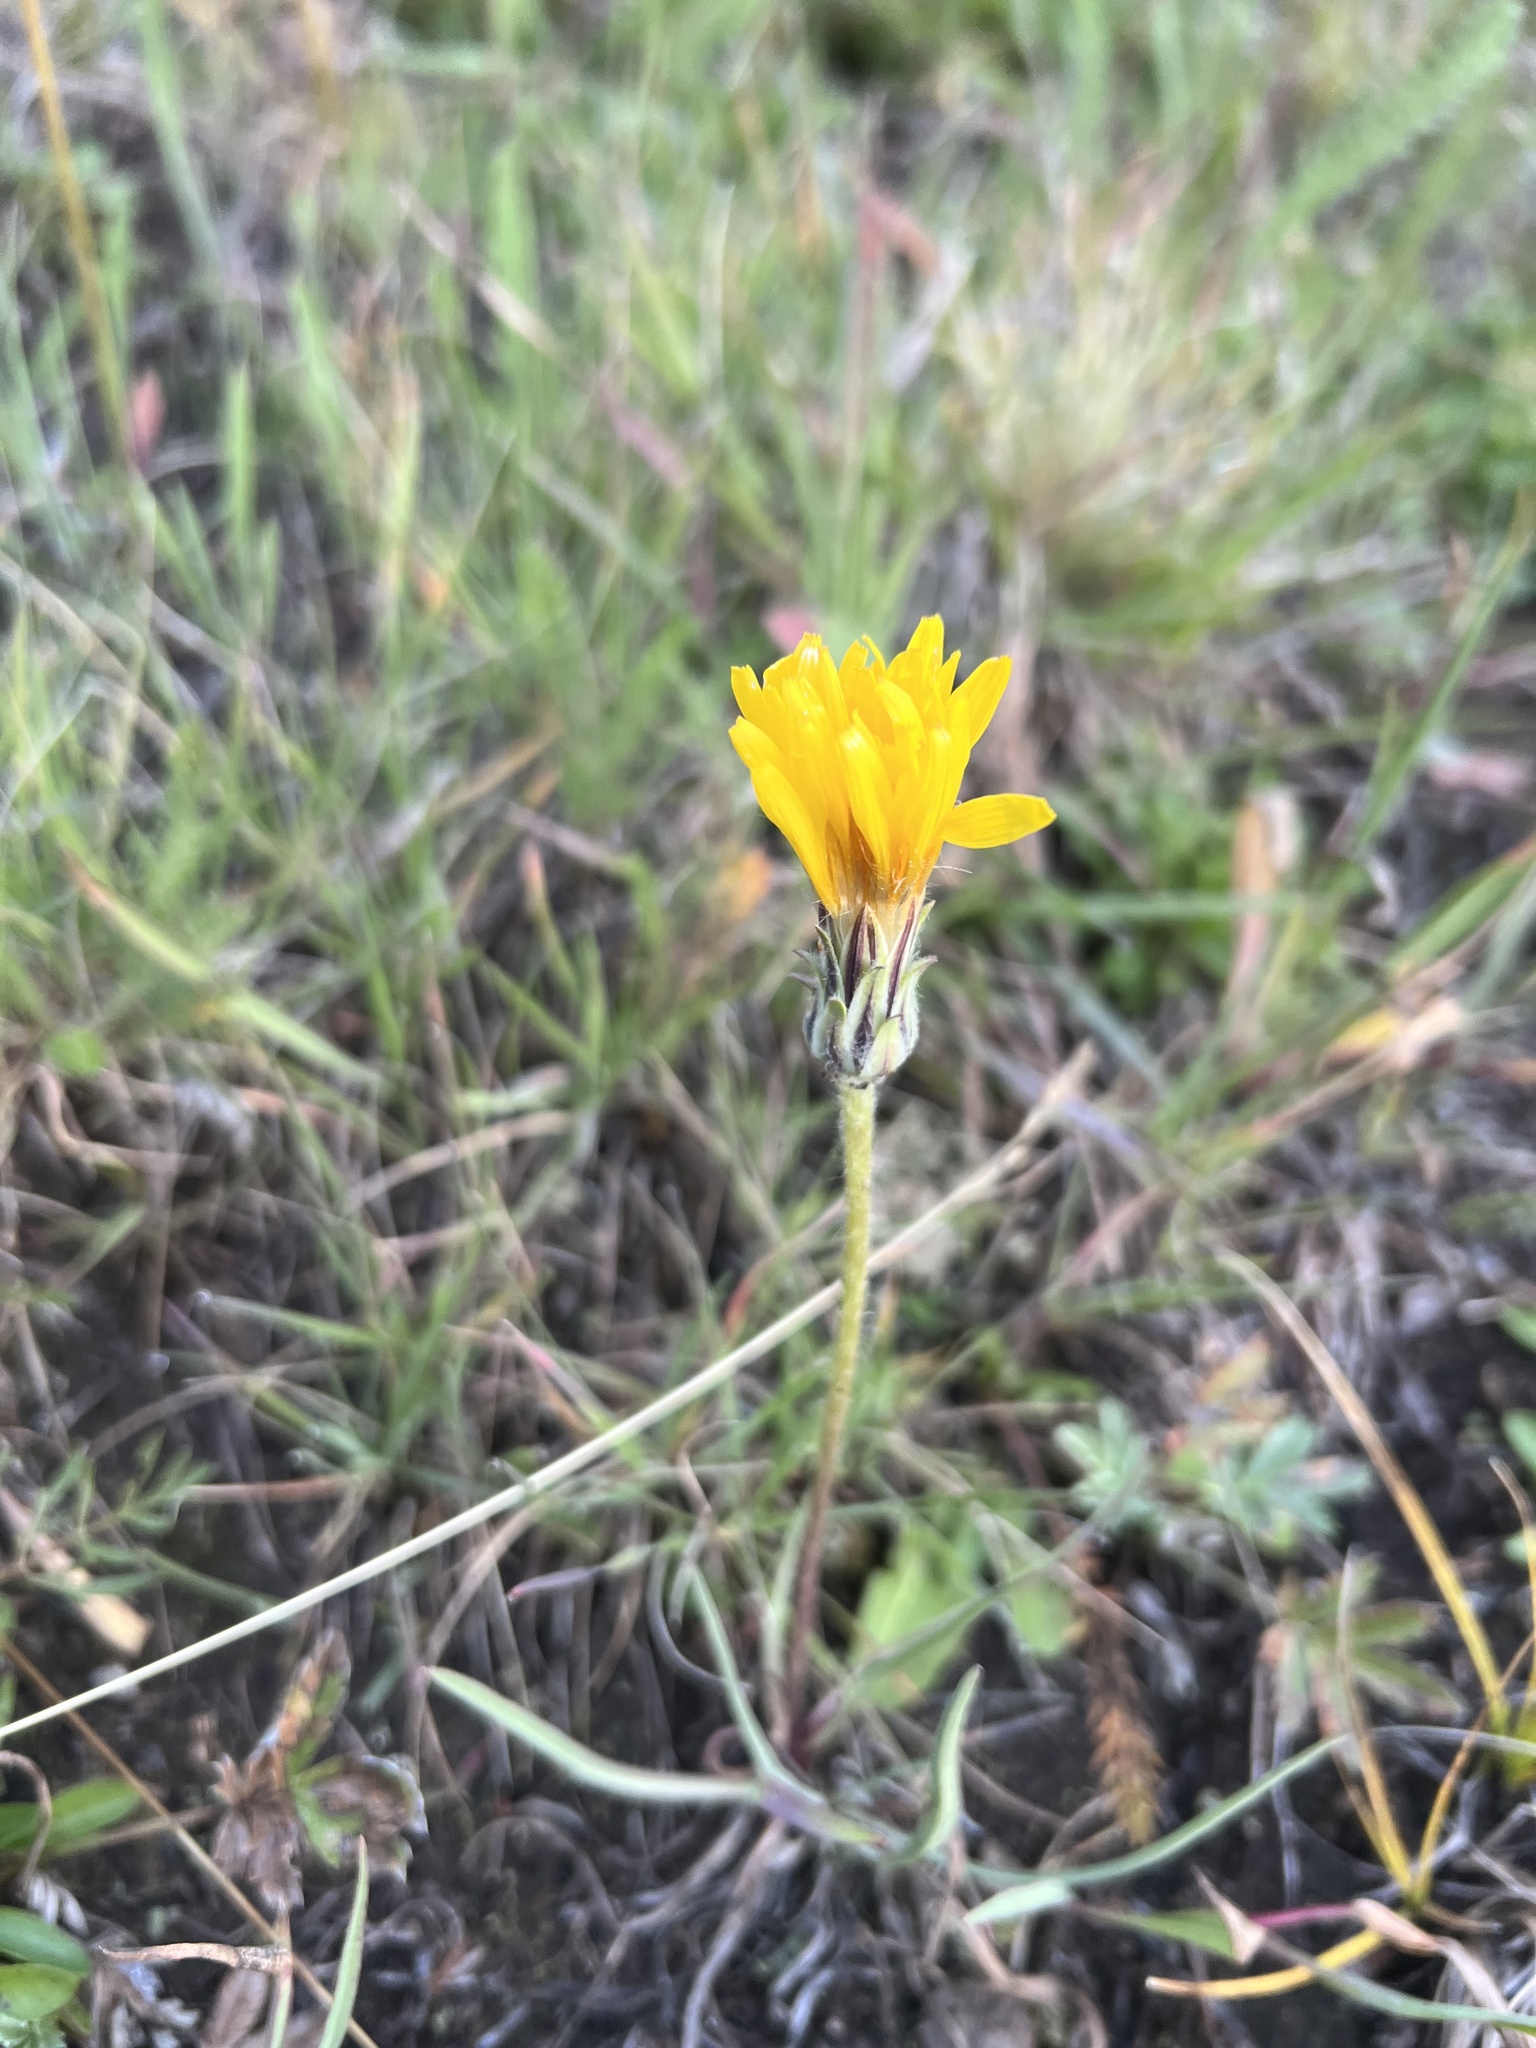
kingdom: Plantae
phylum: Tracheophyta
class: Magnoliopsida
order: Asterales
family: Asteraceae
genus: Agoseris
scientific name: Agoseris glauca
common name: Prairie agoseris
